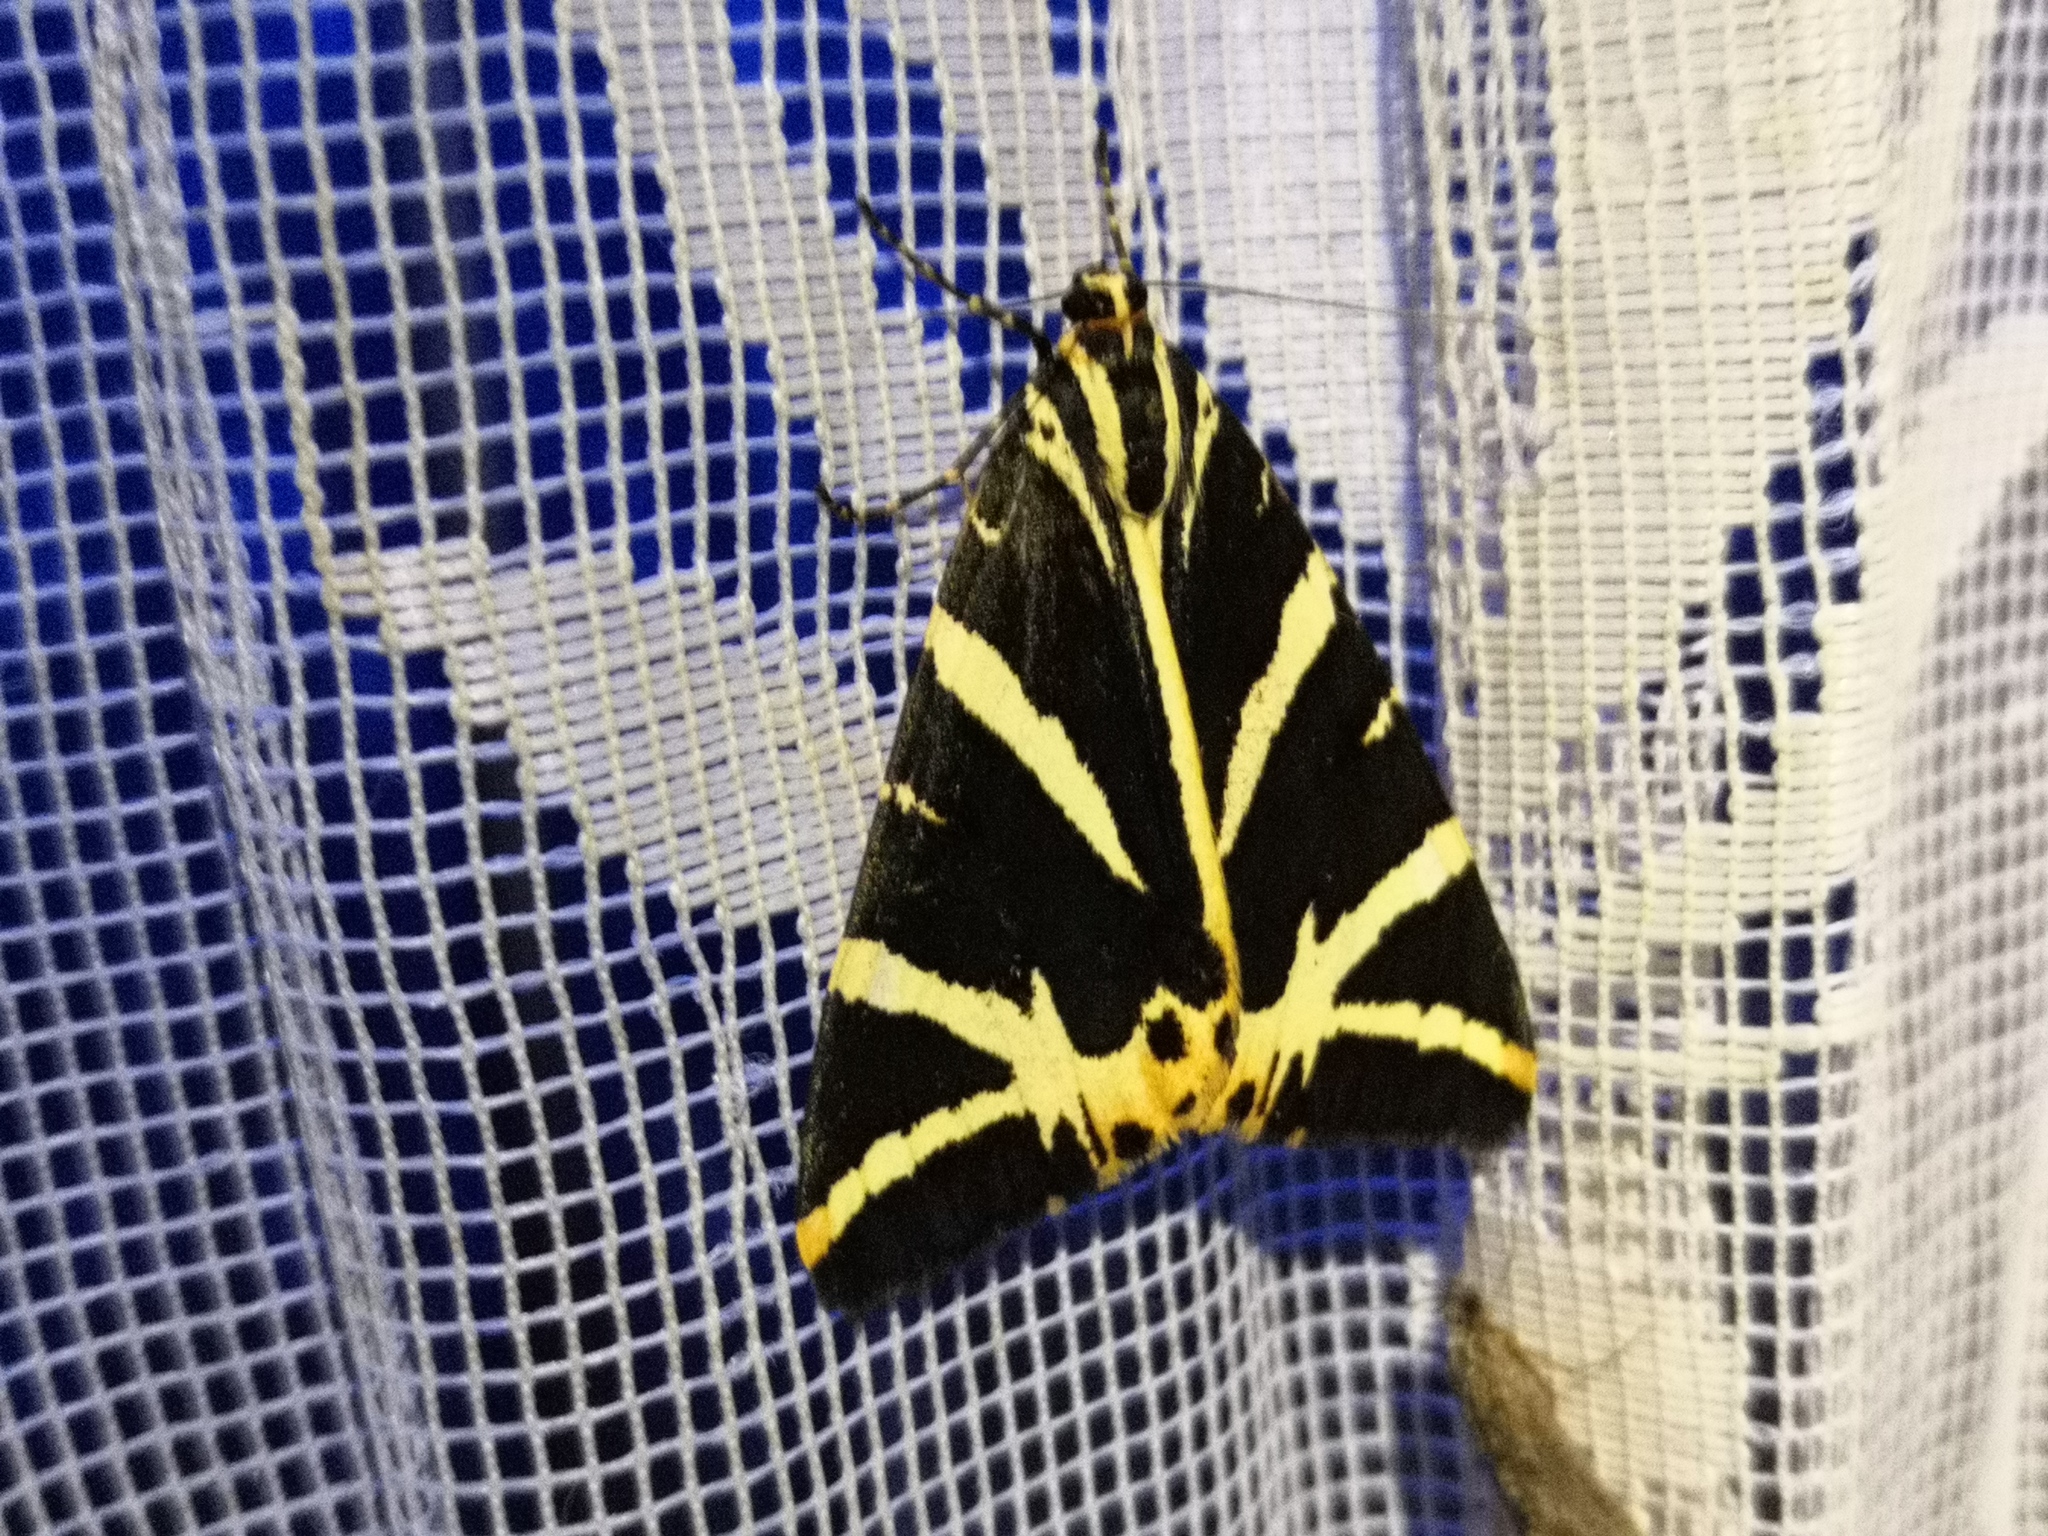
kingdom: Animalia
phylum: Arthropoda
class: Insecta
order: Lepidoptera
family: Erebidae
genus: Euplagia
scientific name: Euplagia quadripunctaria
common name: Jersey tiger
